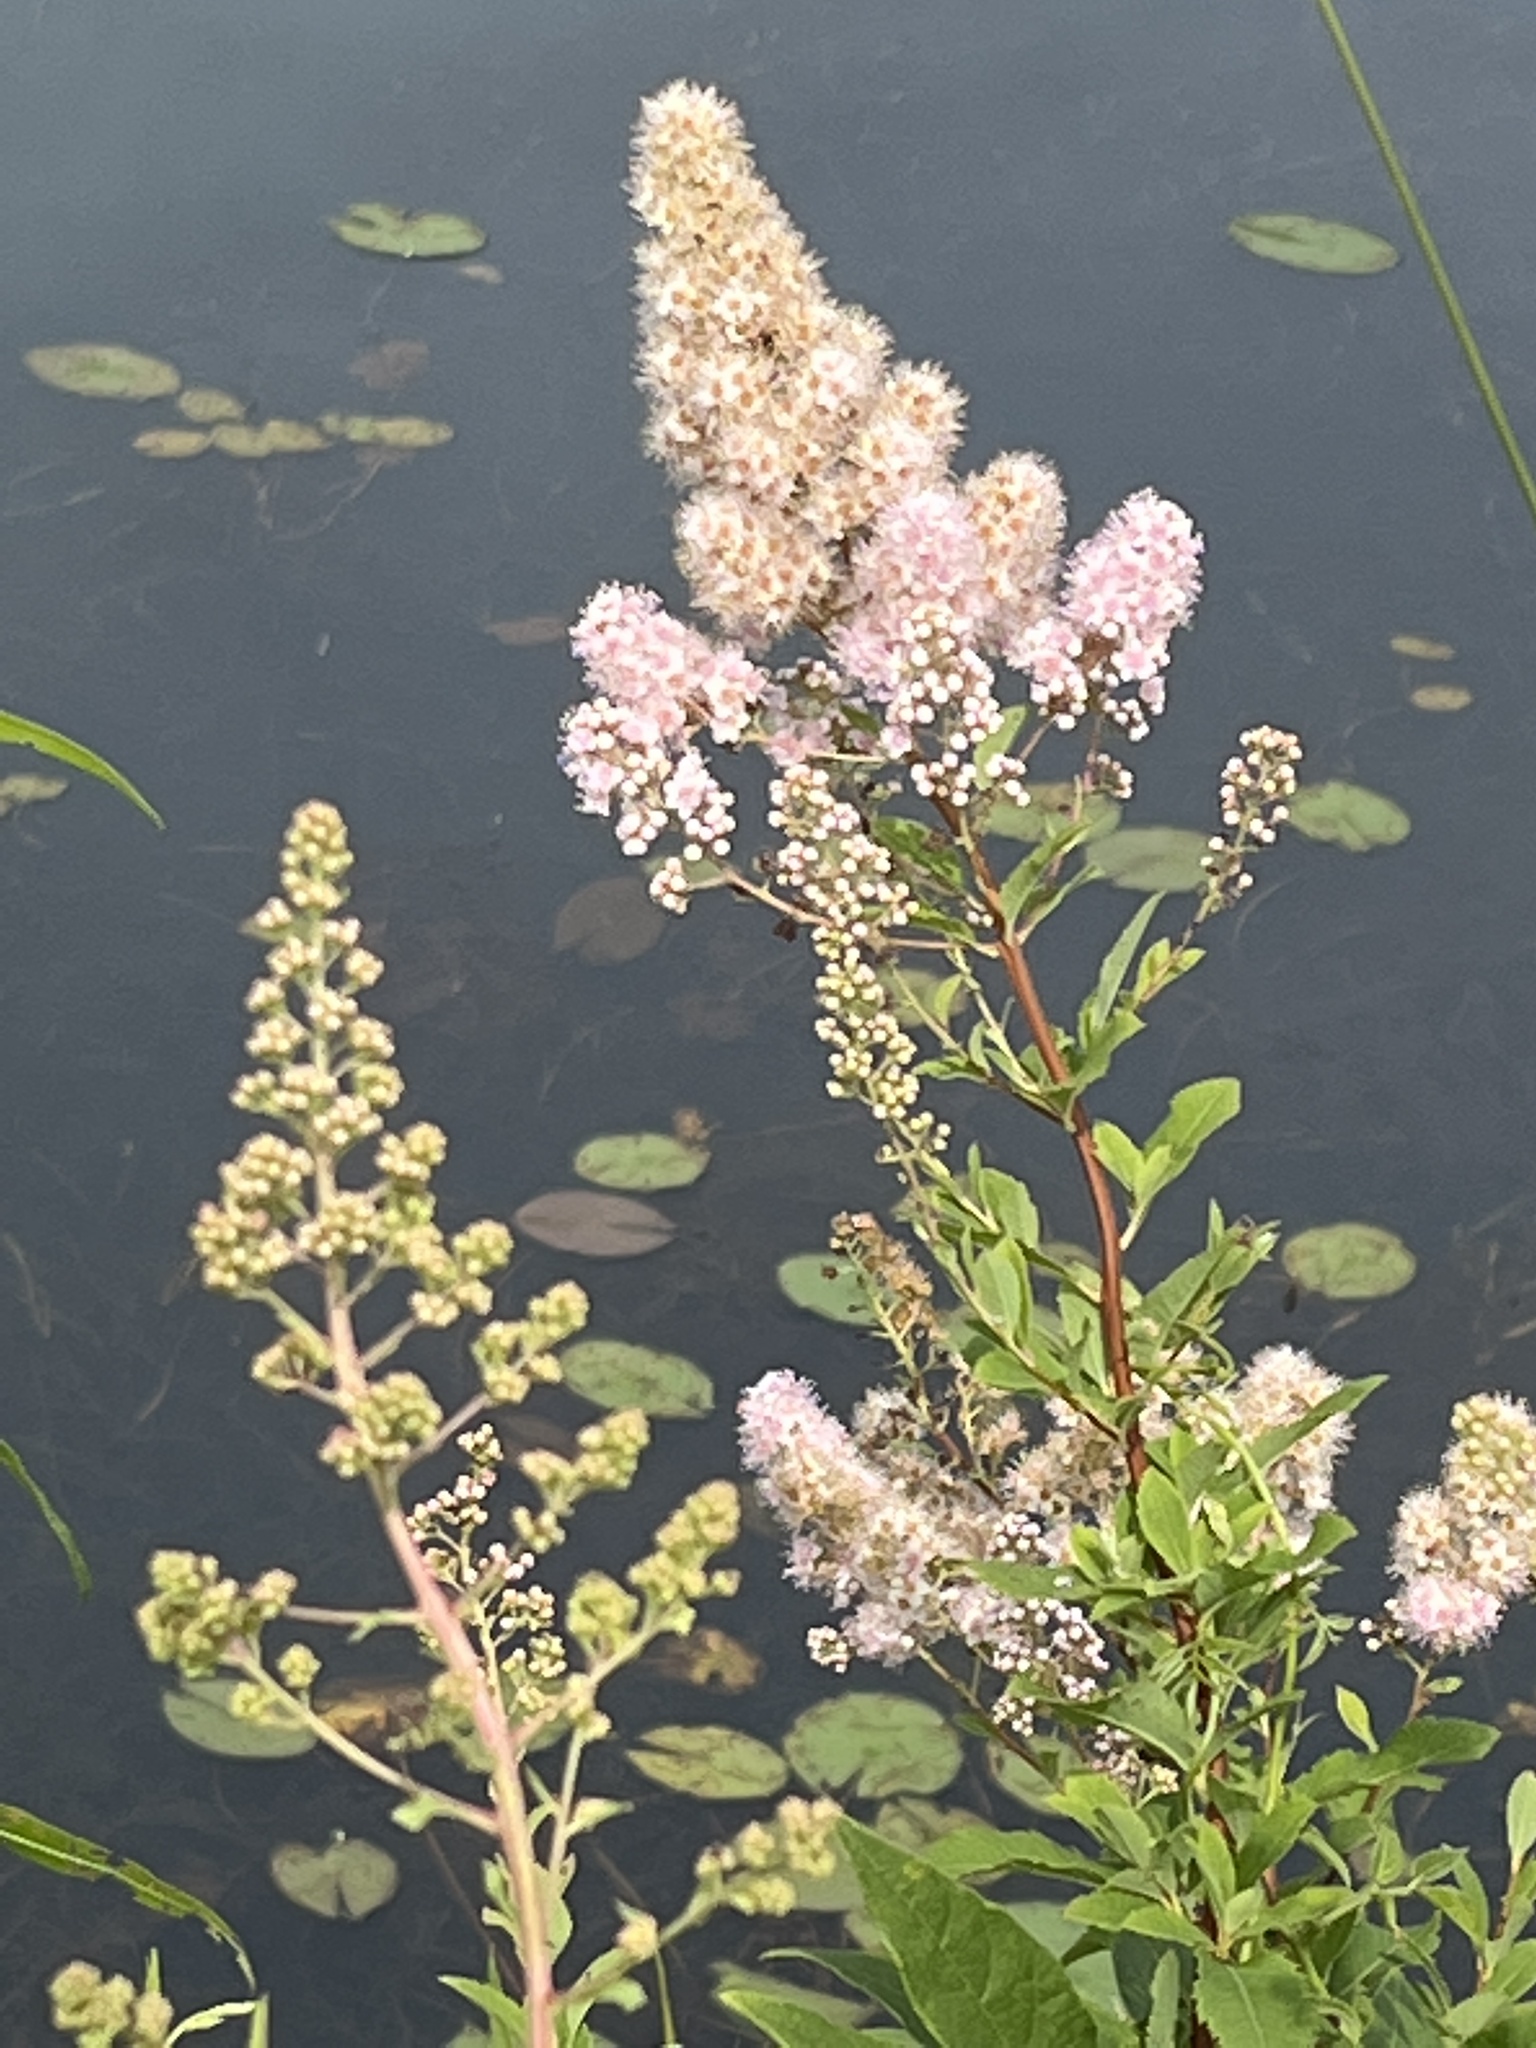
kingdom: Plantae
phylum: Tracheophyta
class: Magnoliopsida
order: Rosales
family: Rosaceae
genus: Spiraea
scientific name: Spiraea alba
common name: Pale bridewort
